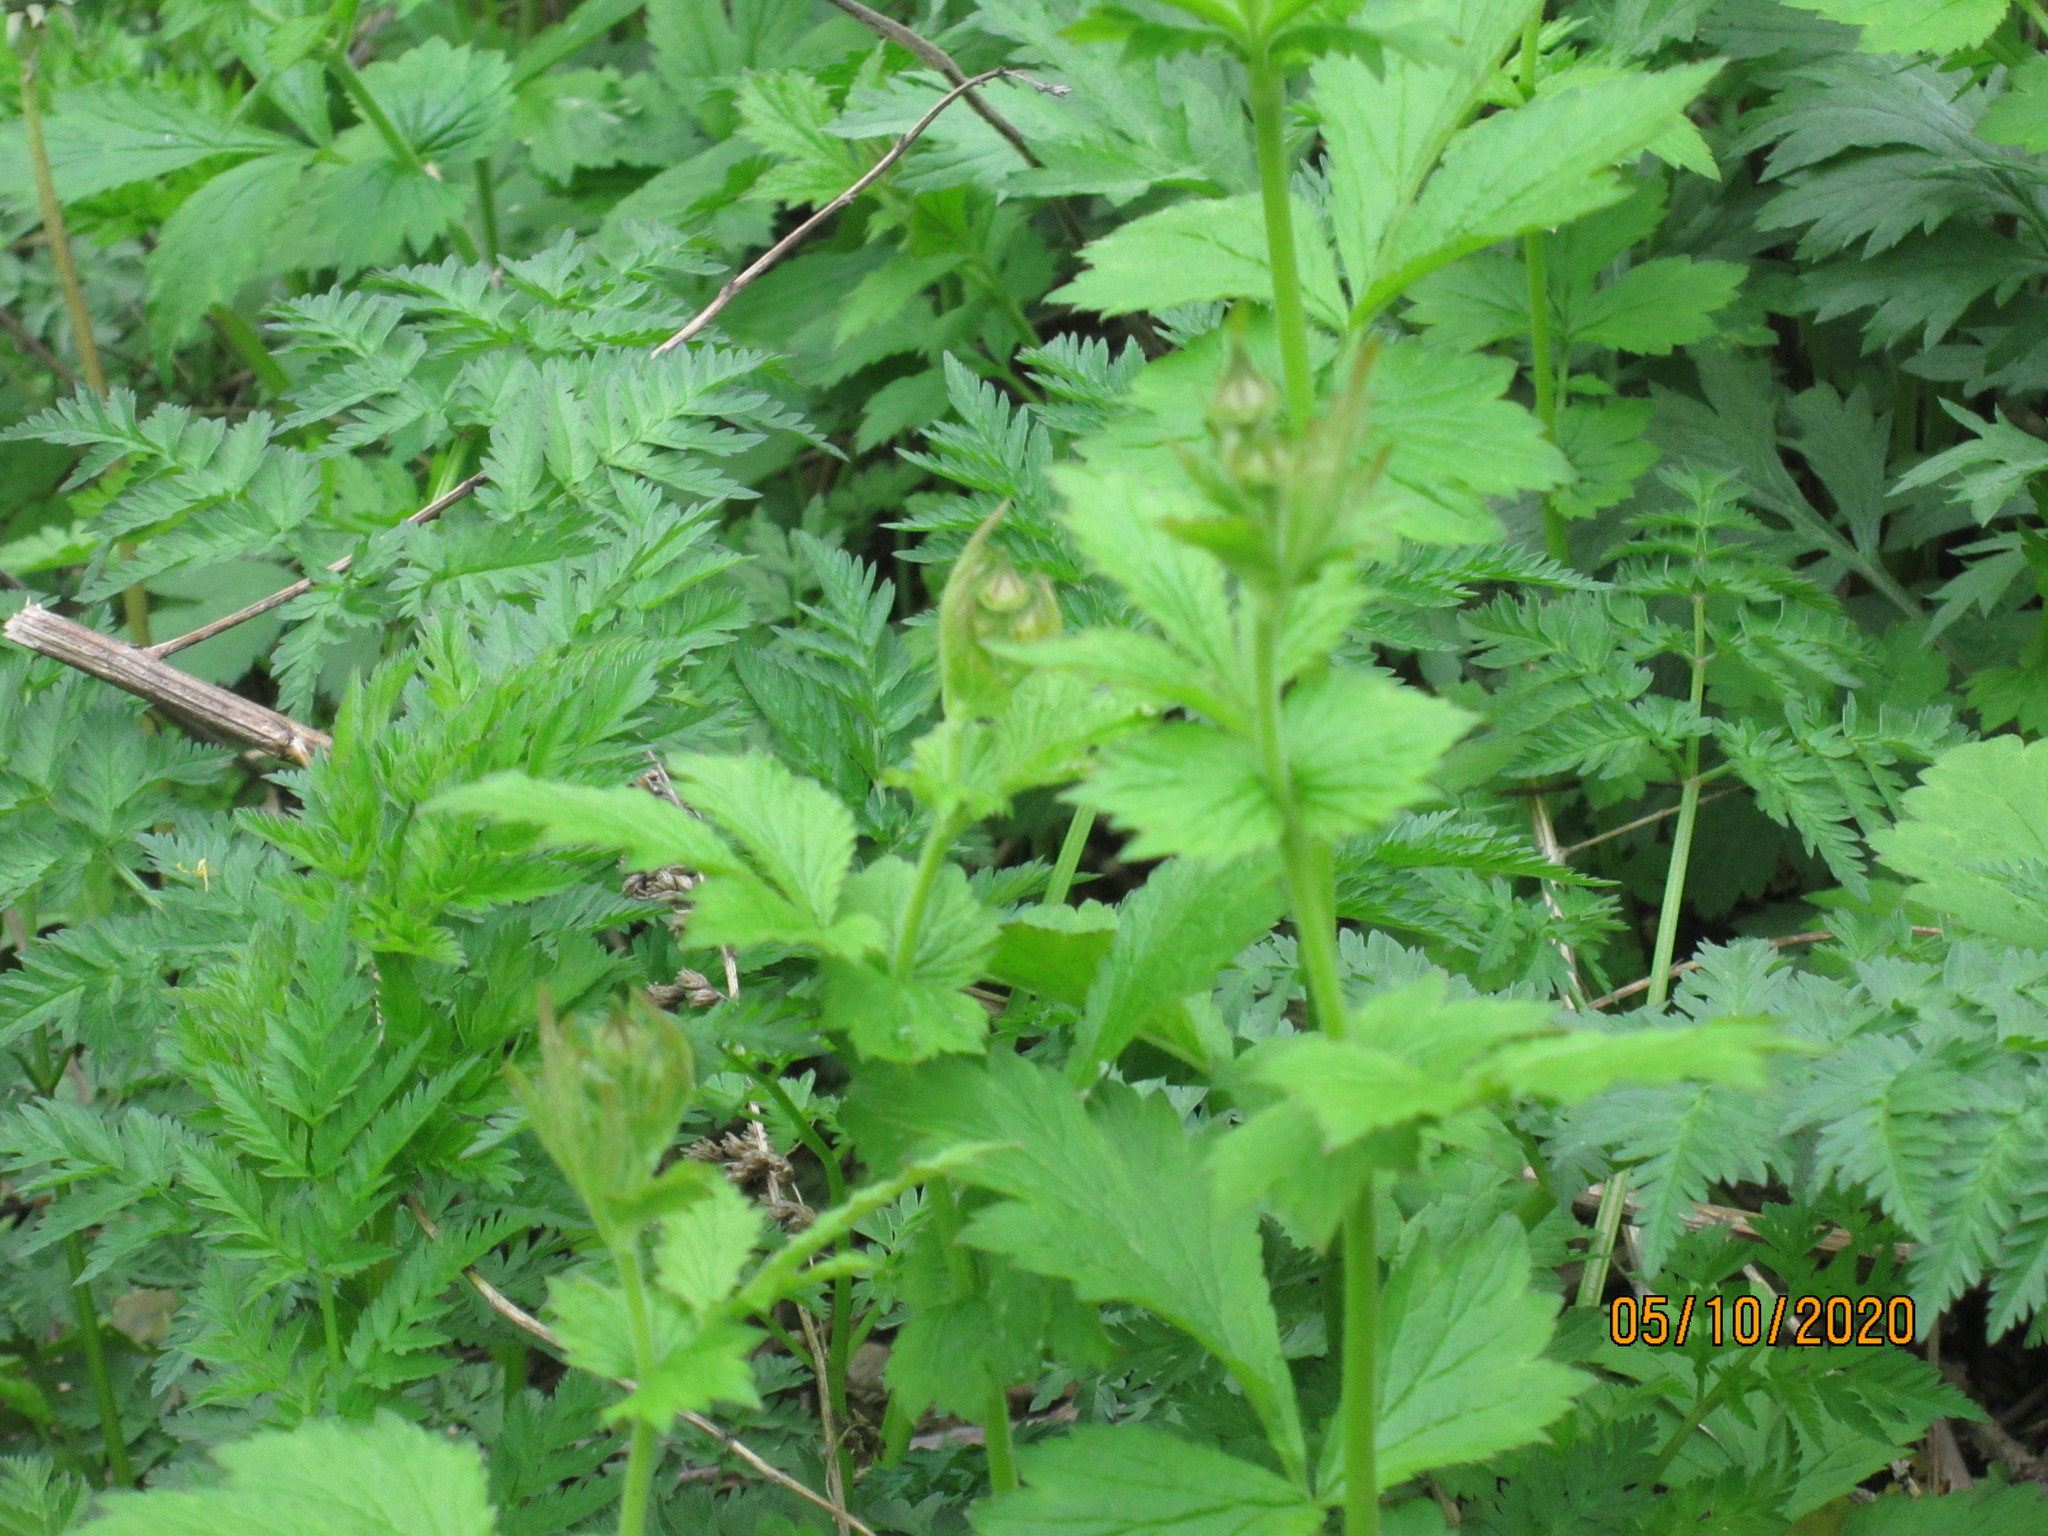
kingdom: Plantae
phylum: Tracheophyta
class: Magnoliopsida
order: Rosales
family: Rosaceae
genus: Geum
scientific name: Geum urbanum
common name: Wood avens
